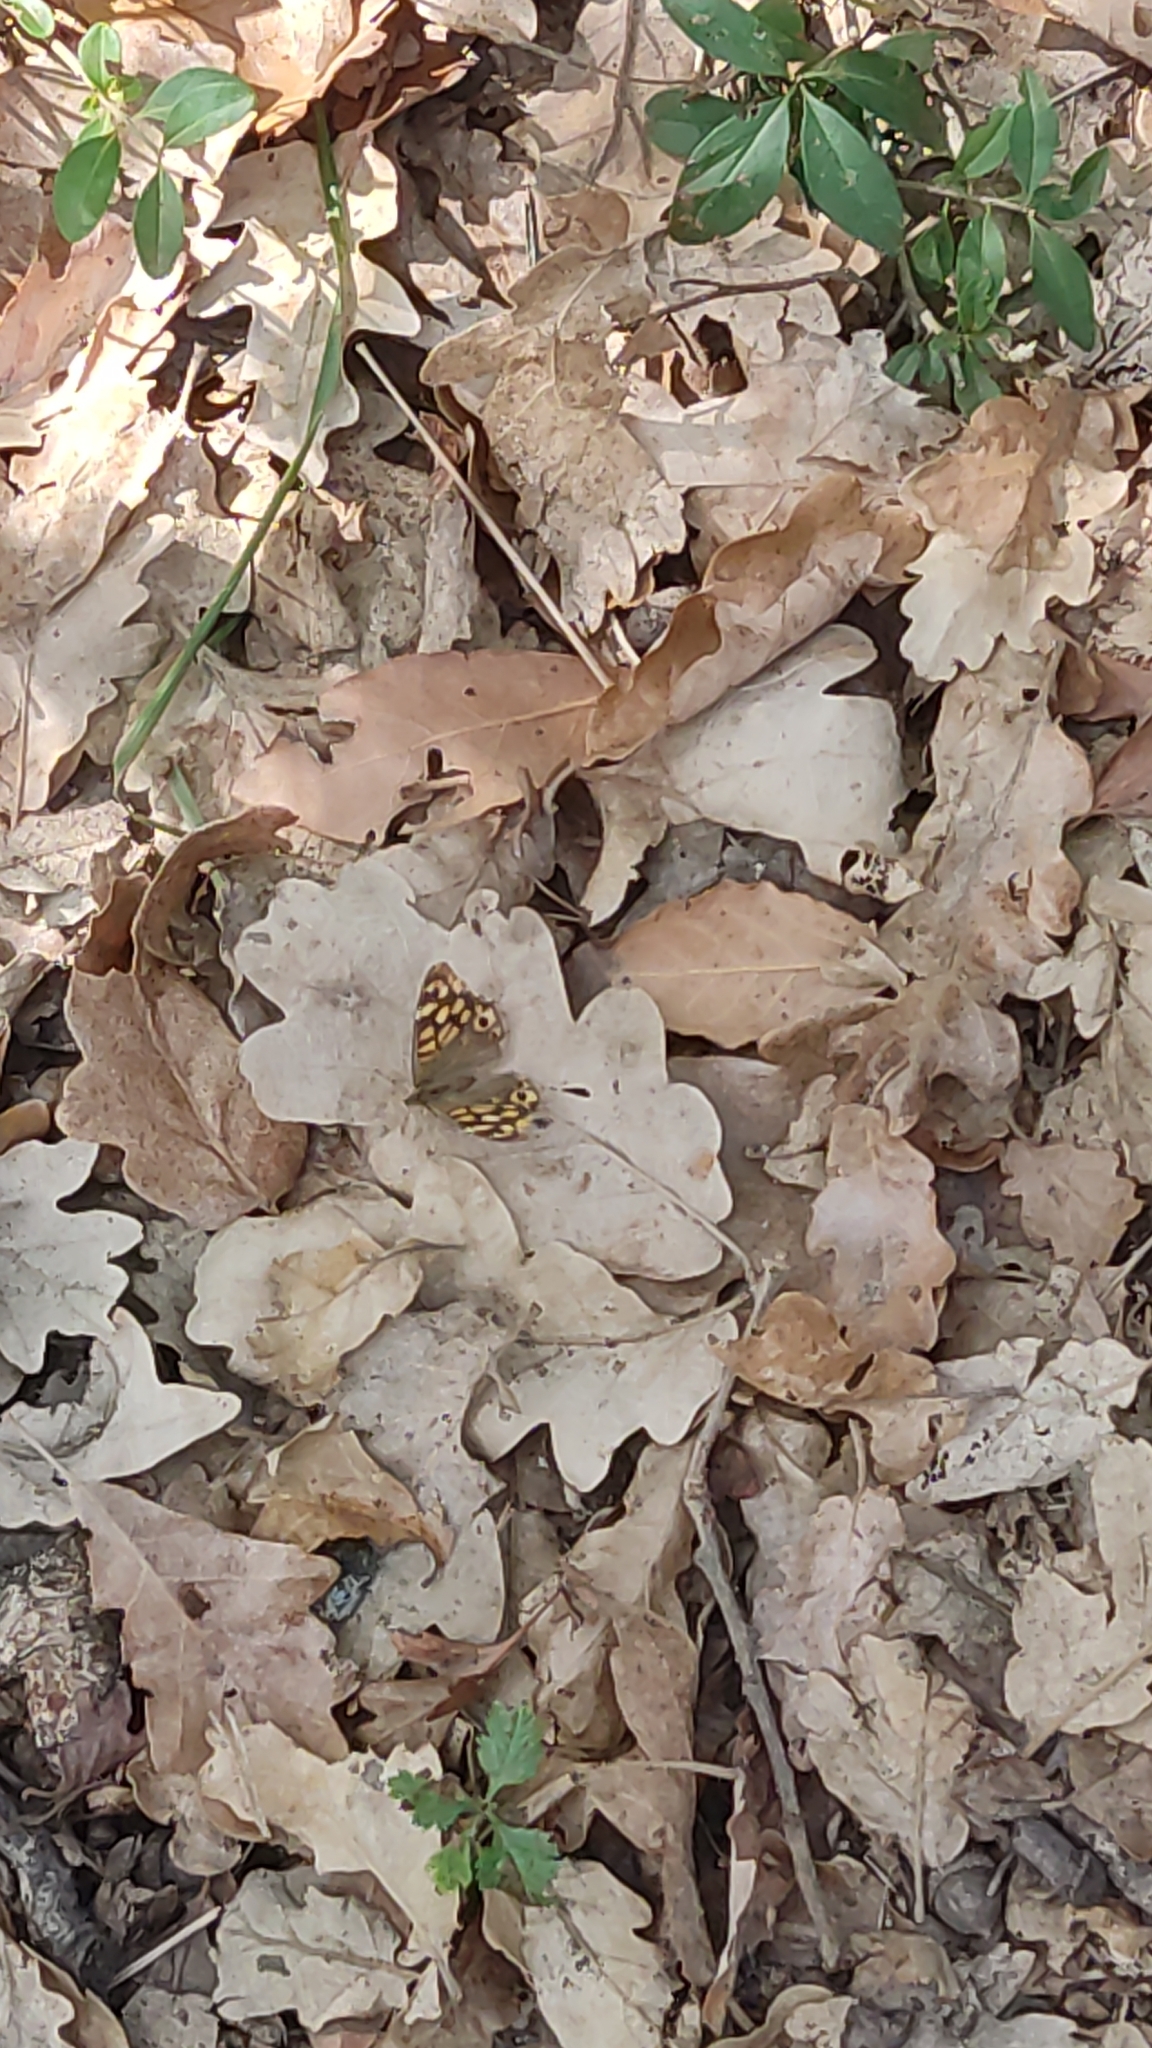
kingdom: Animalia
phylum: Arthropoda
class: Insecta
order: Lepidoptera
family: Nymphalidae
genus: Pararge
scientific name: Pararge aegeria
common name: Speckled wood
